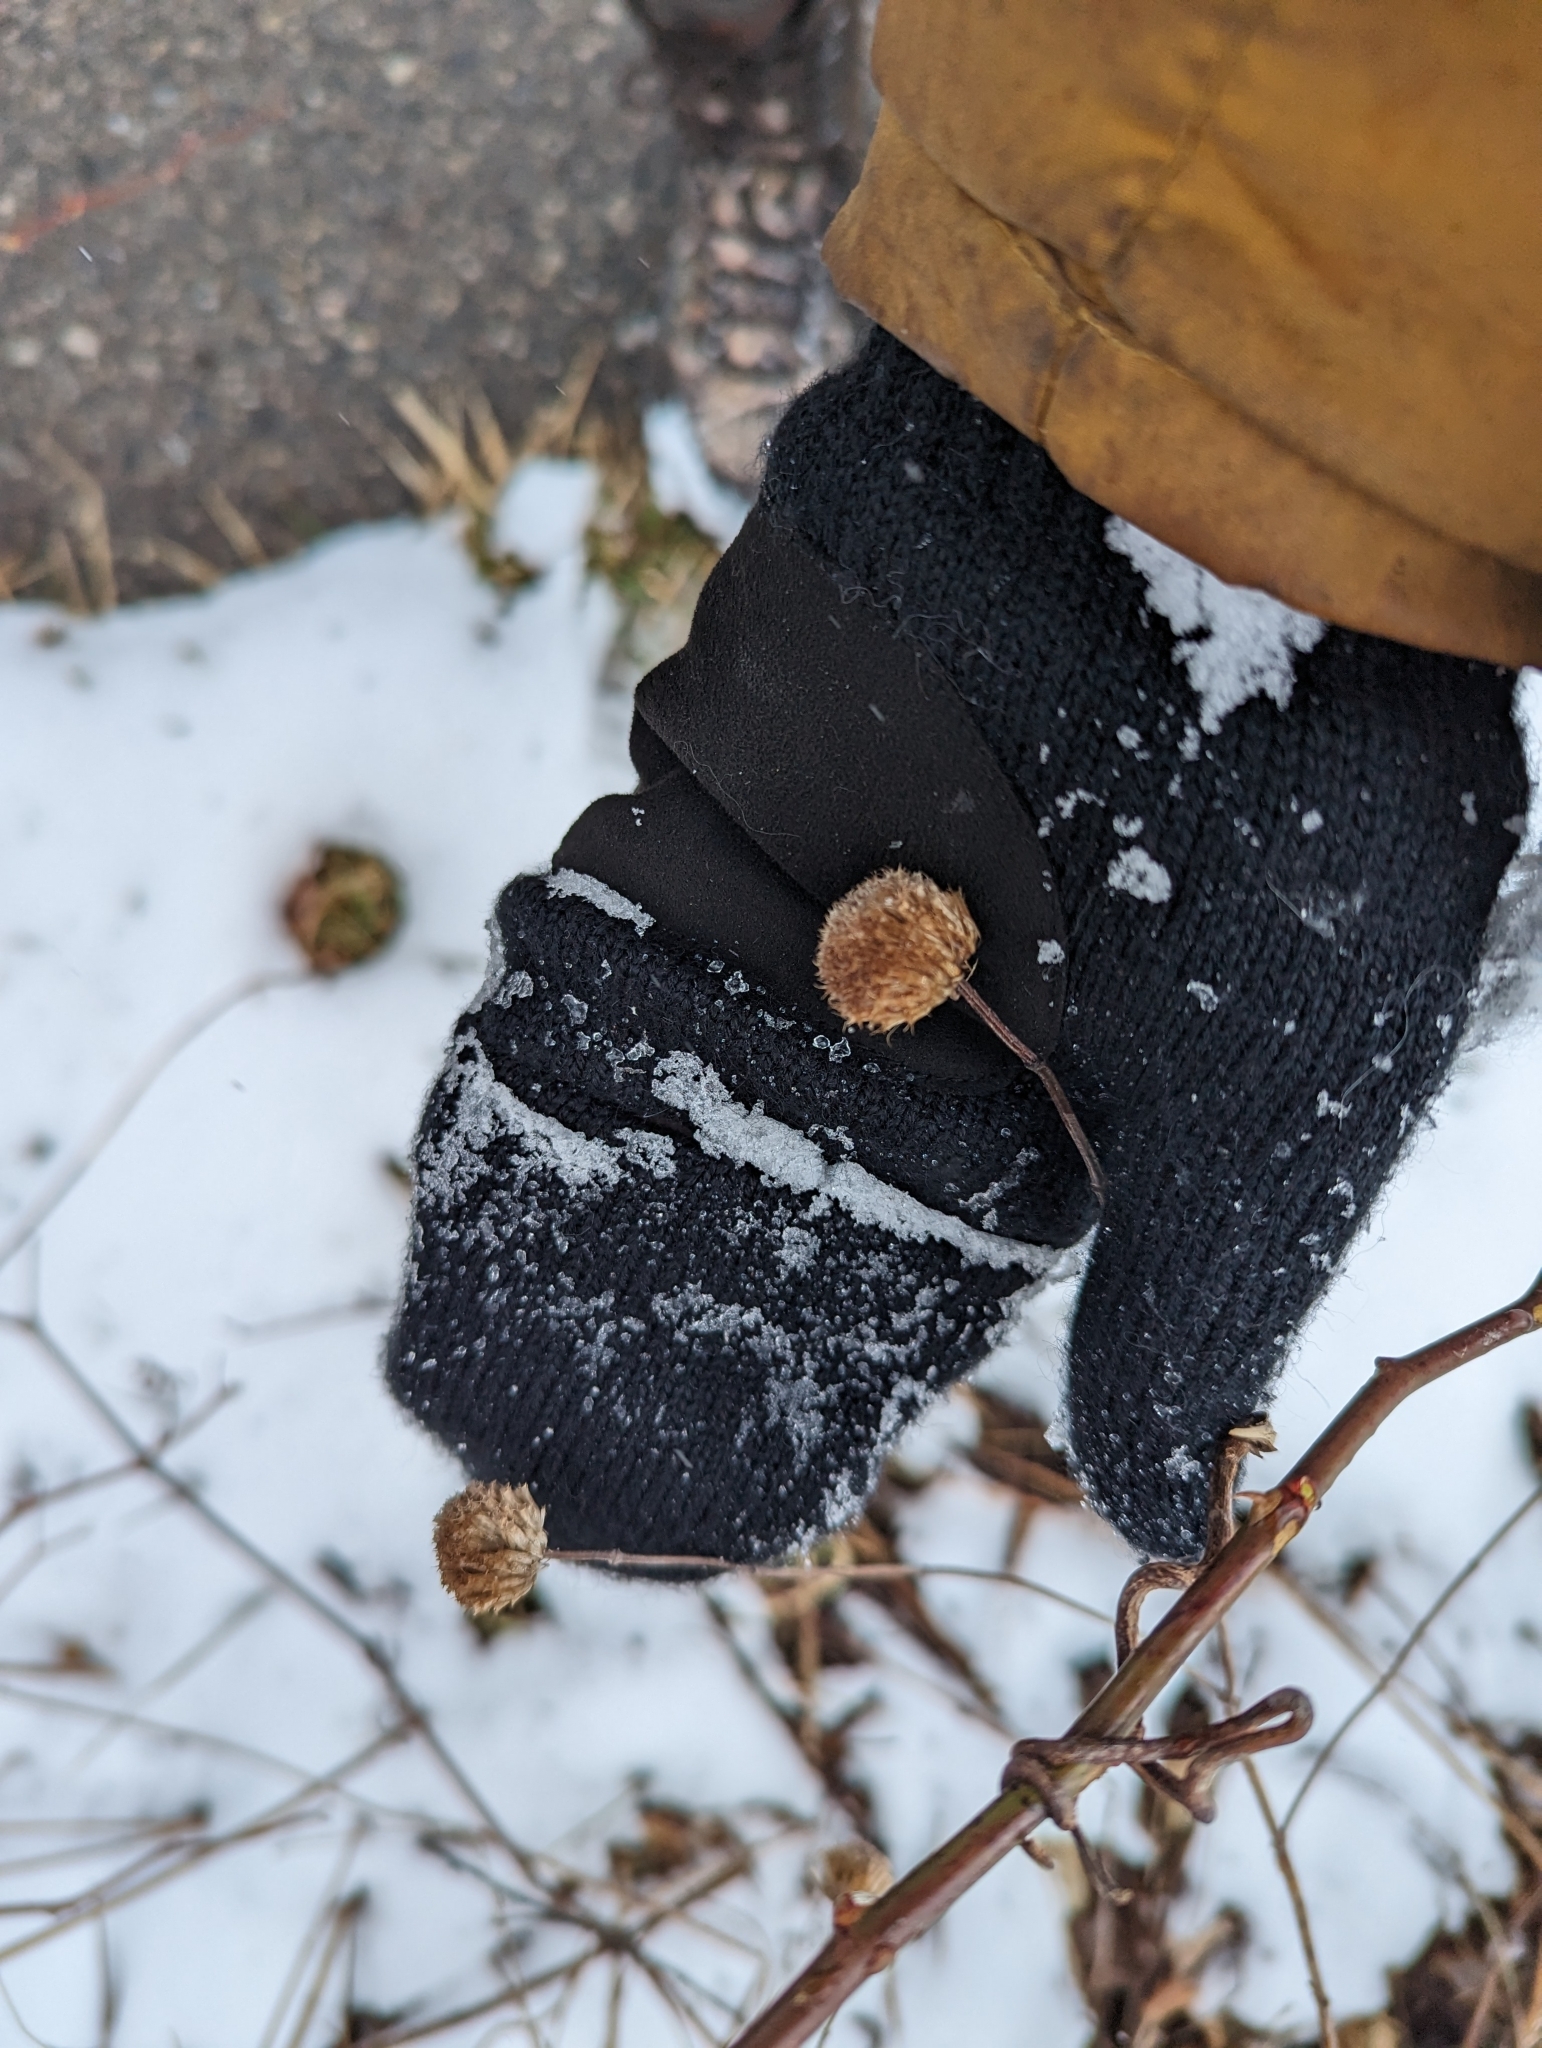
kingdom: Plantae
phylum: Tracheophyta
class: Magnoliopsida
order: Lamiales
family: Lamiaceae
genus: Monarda
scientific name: Monarda fistulosa
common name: Purple beebalm
